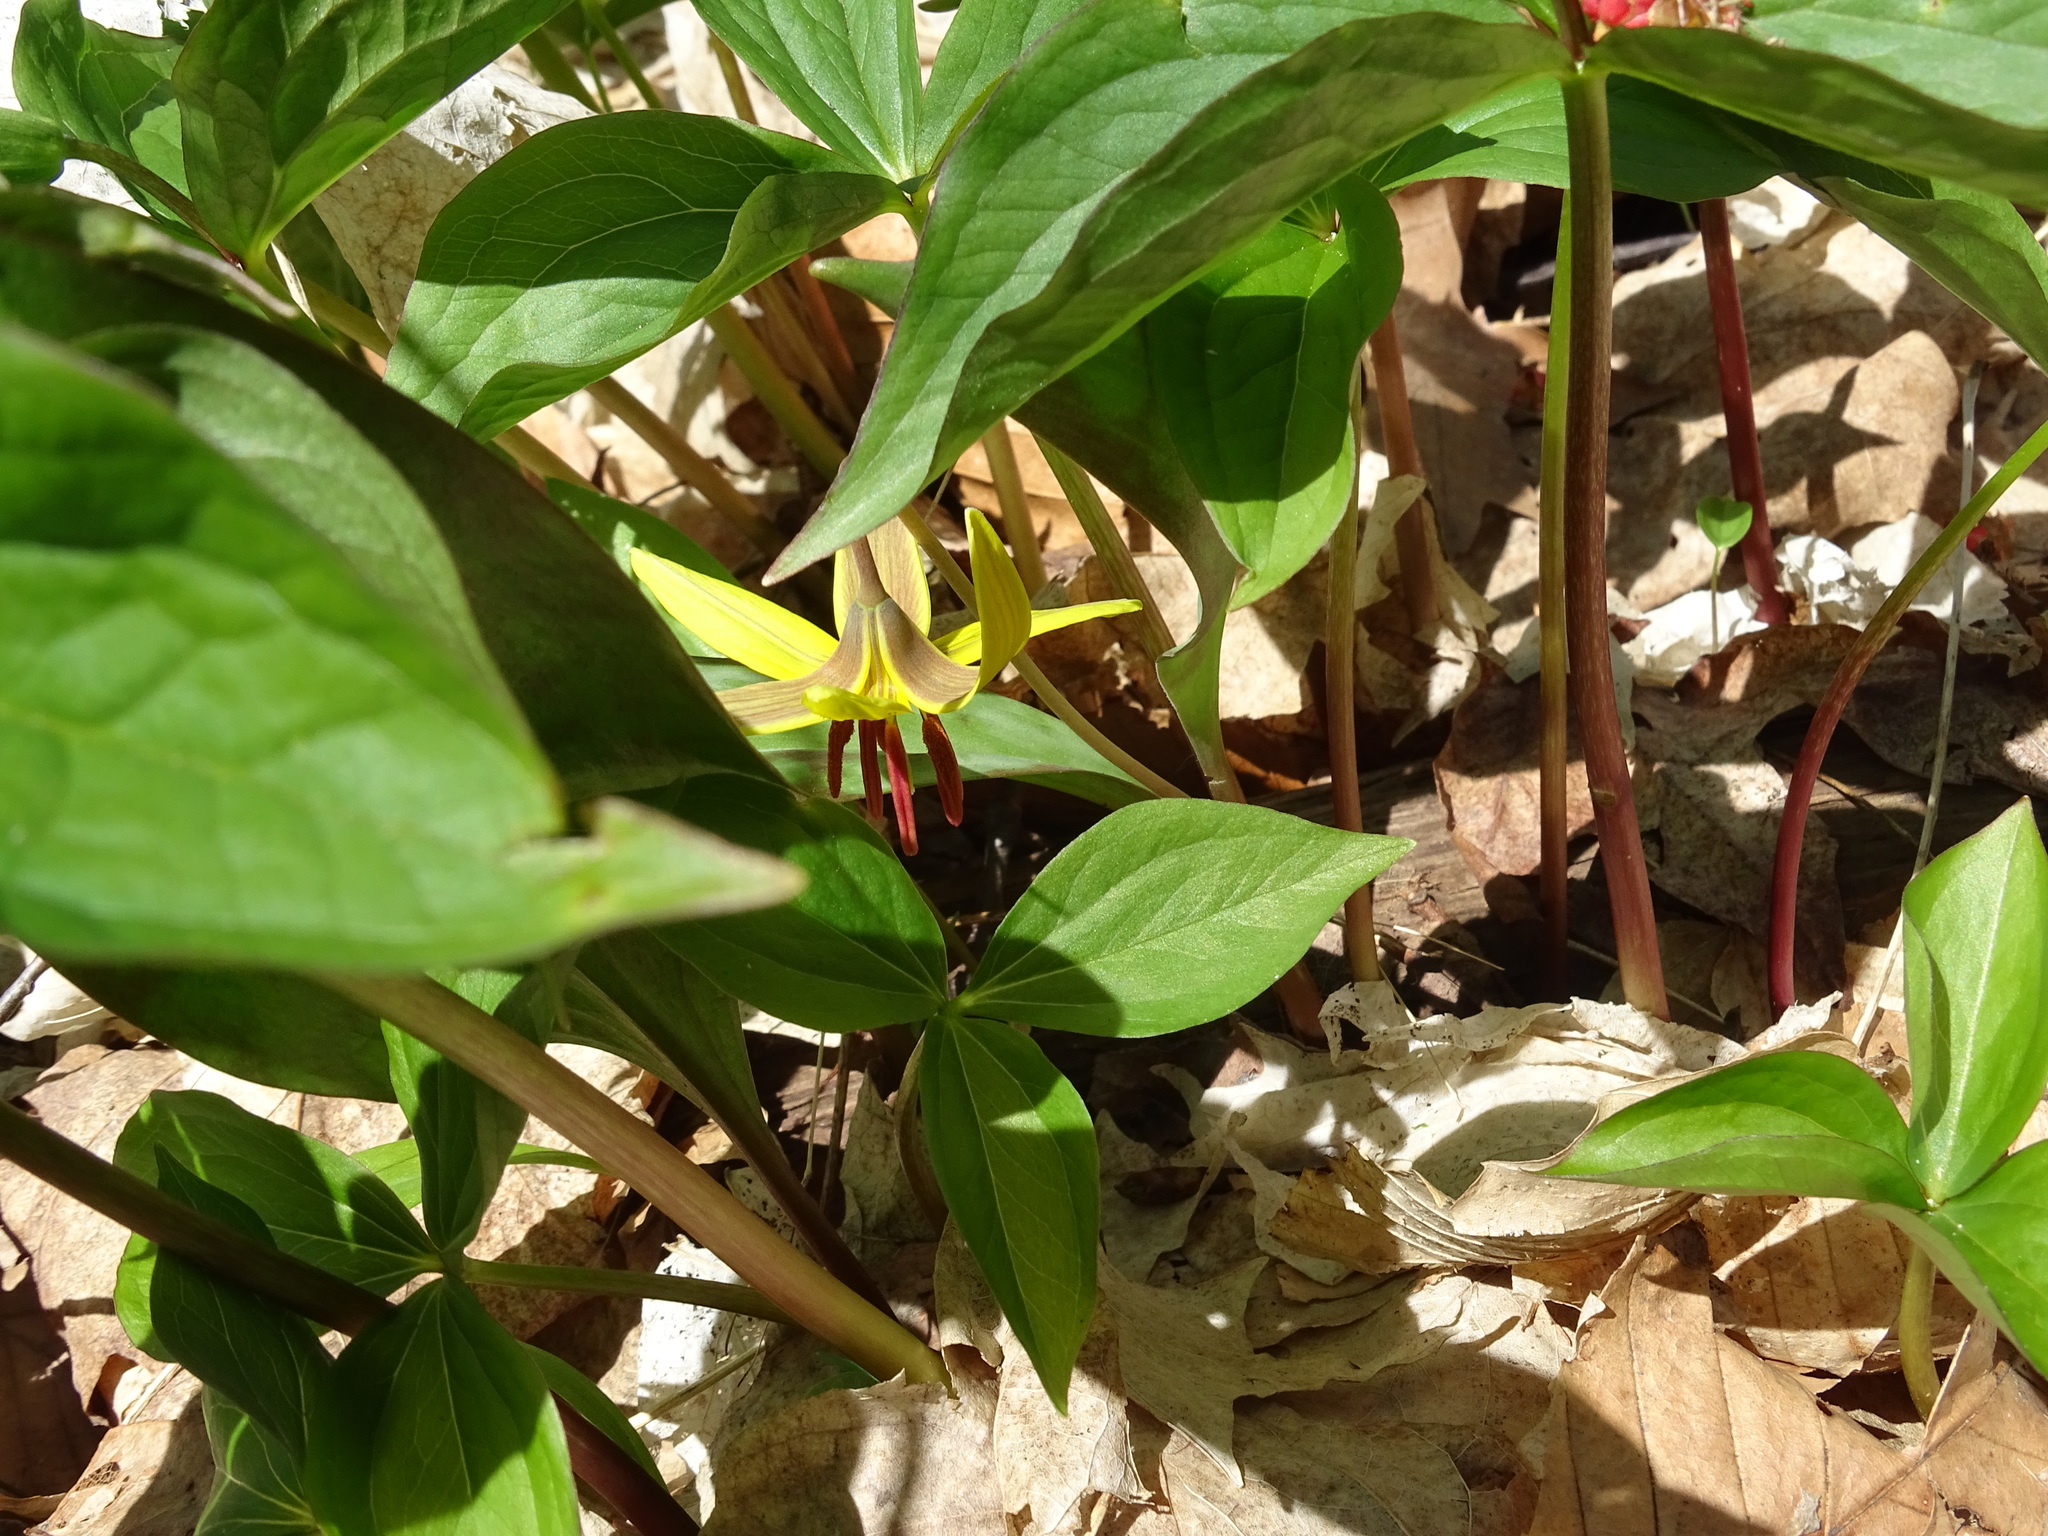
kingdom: Plantae
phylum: Tracheophyta
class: Liliopsida
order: Liliales
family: Liliaceae
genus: Erythronium
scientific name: Erythronium americanum
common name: Yellow adder's-tongue
